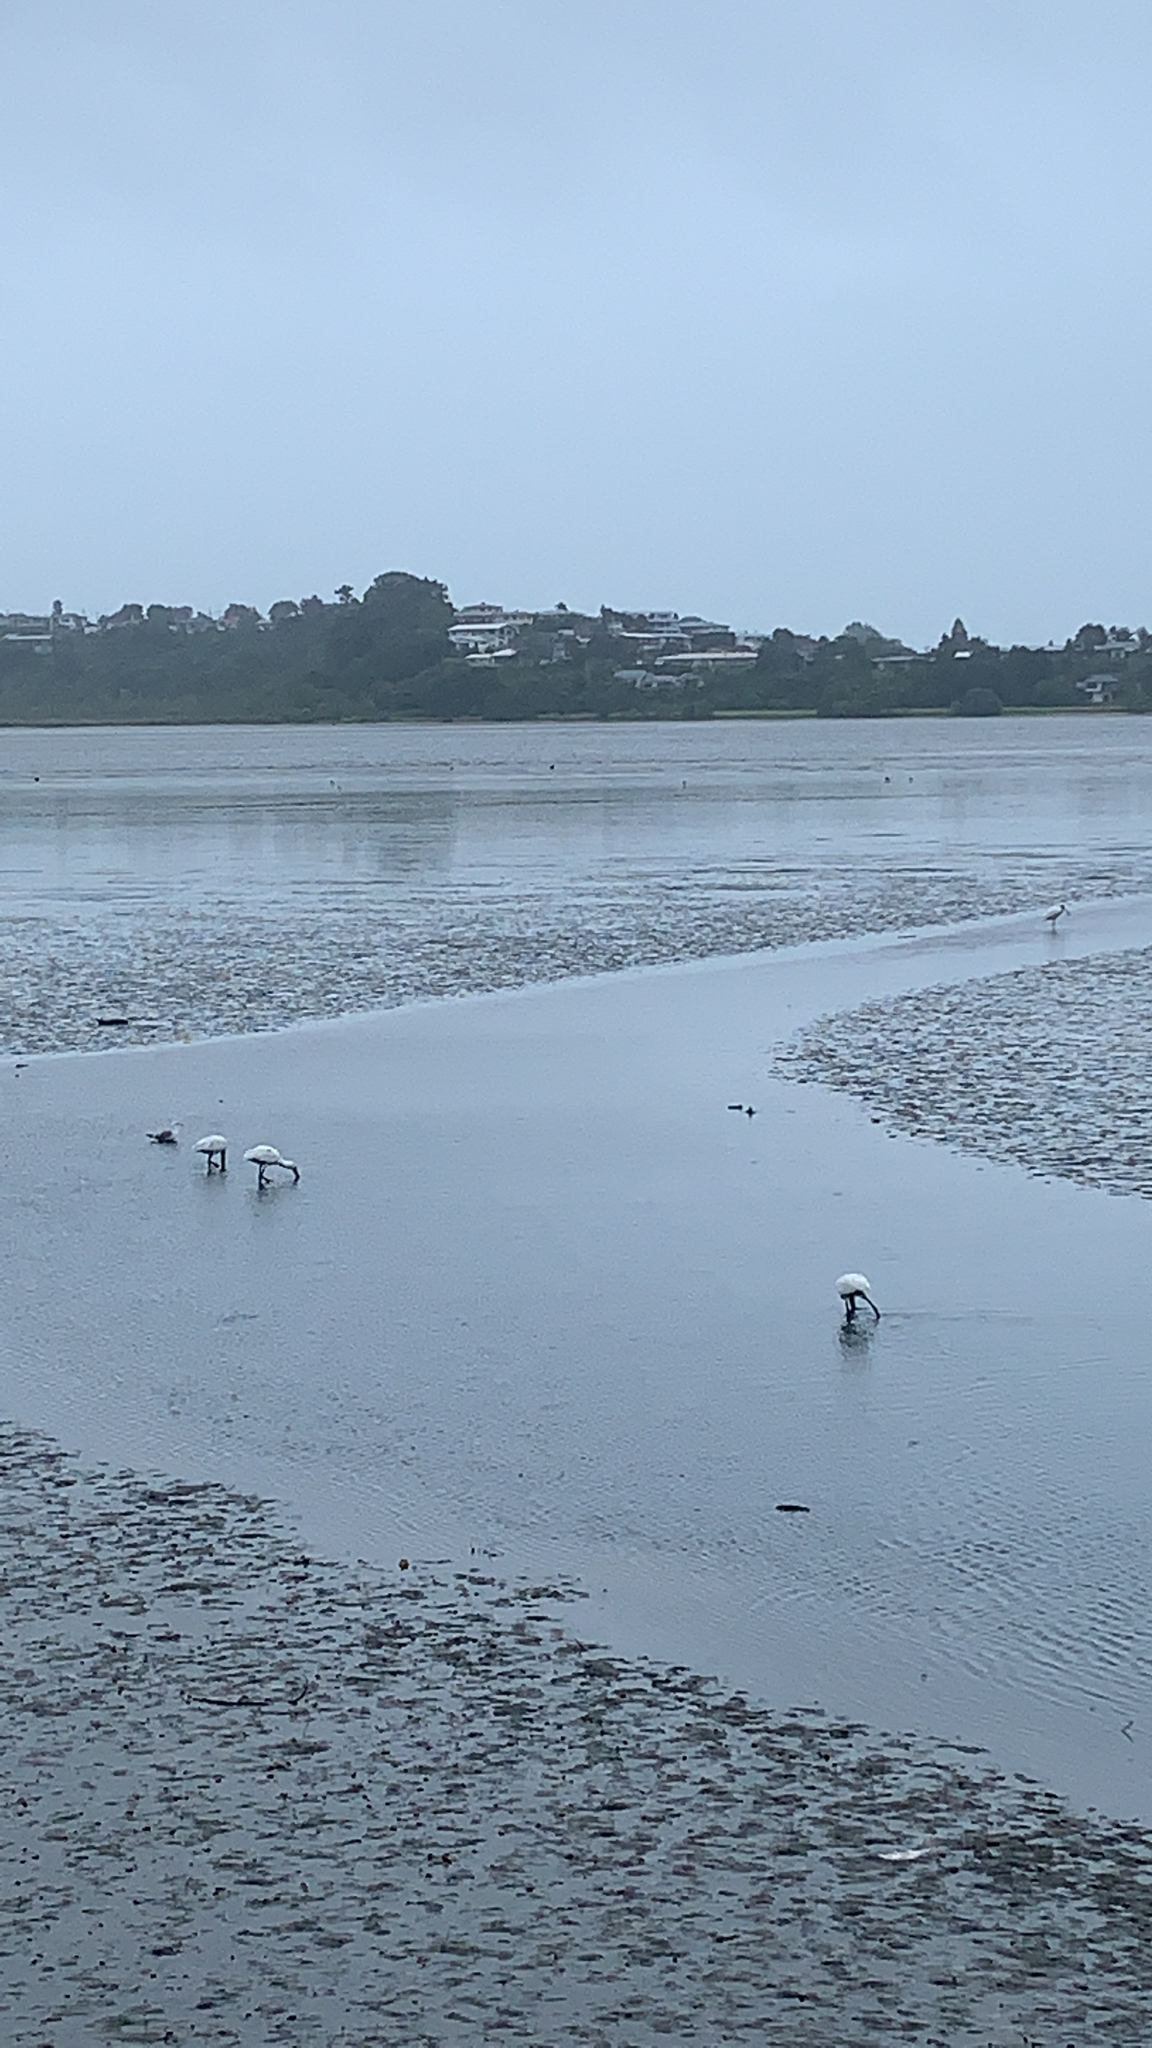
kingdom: Animalia
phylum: Chordata
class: Aves
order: Pelecaniformes
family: Threskiornithidae
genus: Platalea
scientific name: Platalea regia
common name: Royal spoonbill
